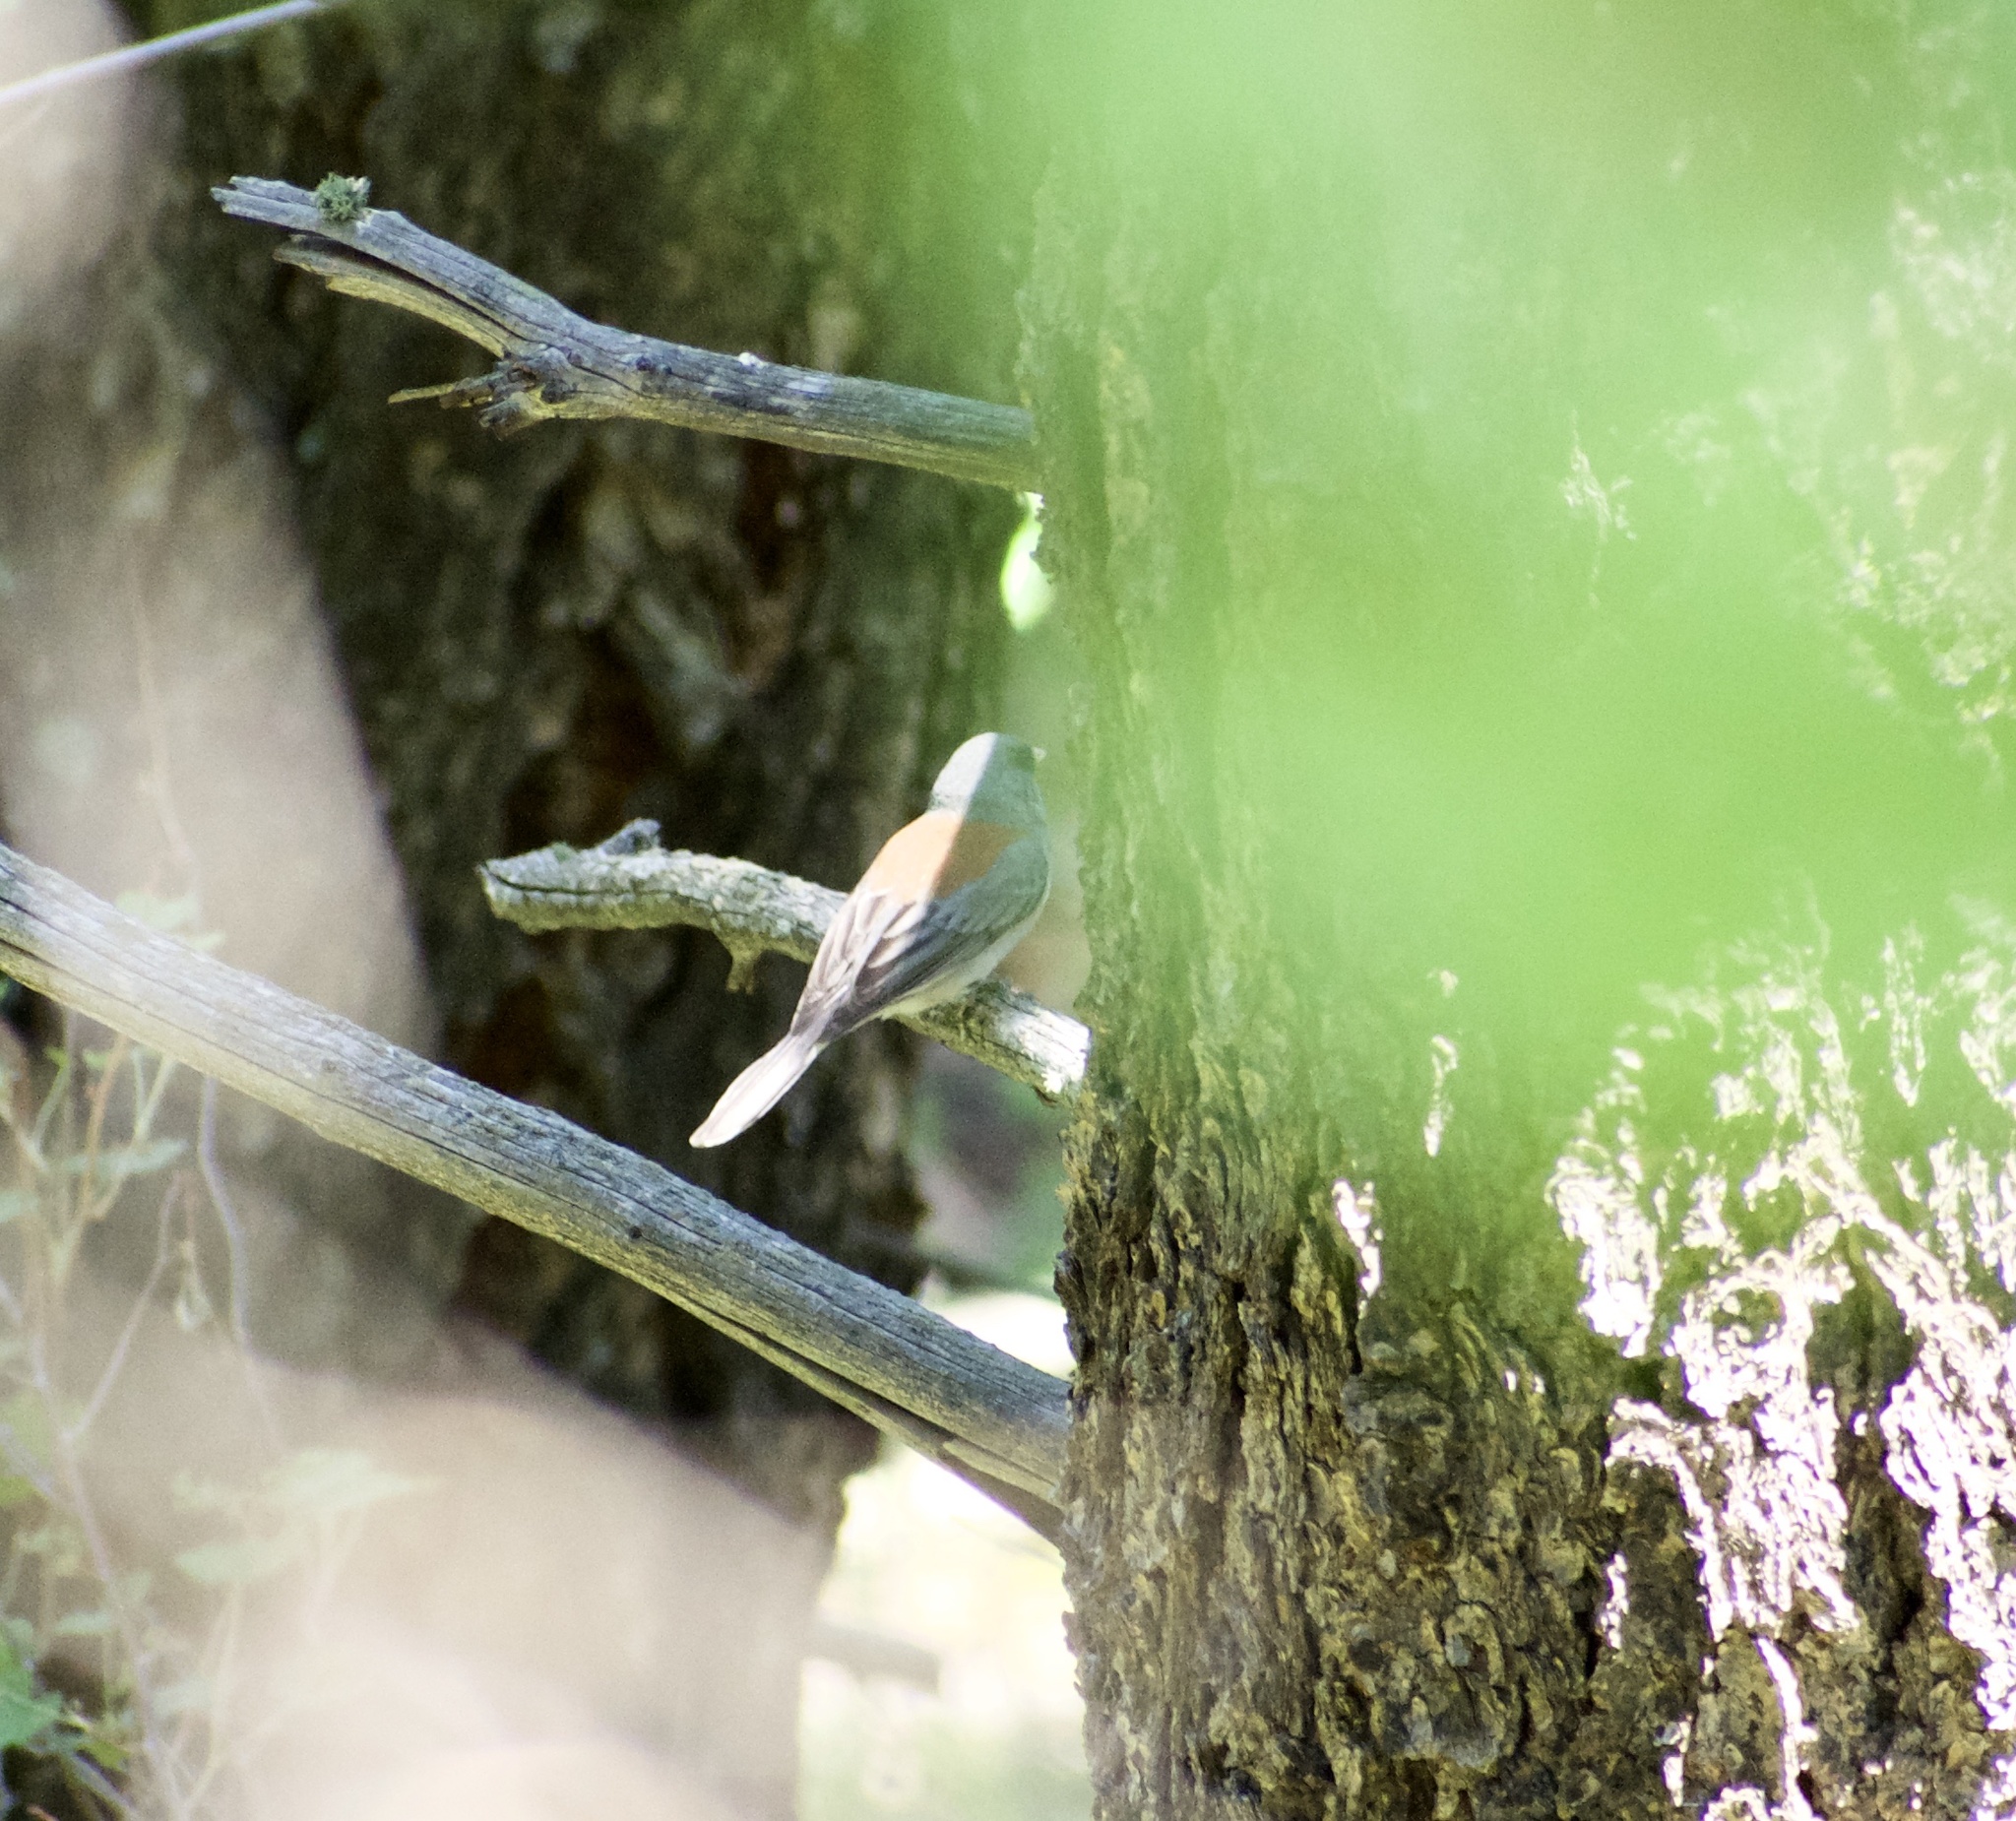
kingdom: Animalia
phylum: Chordata
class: Aves
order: Passeriformes
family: Passerellidae
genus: Junco
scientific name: Junco hyemalis
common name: Dark-eyed junco
